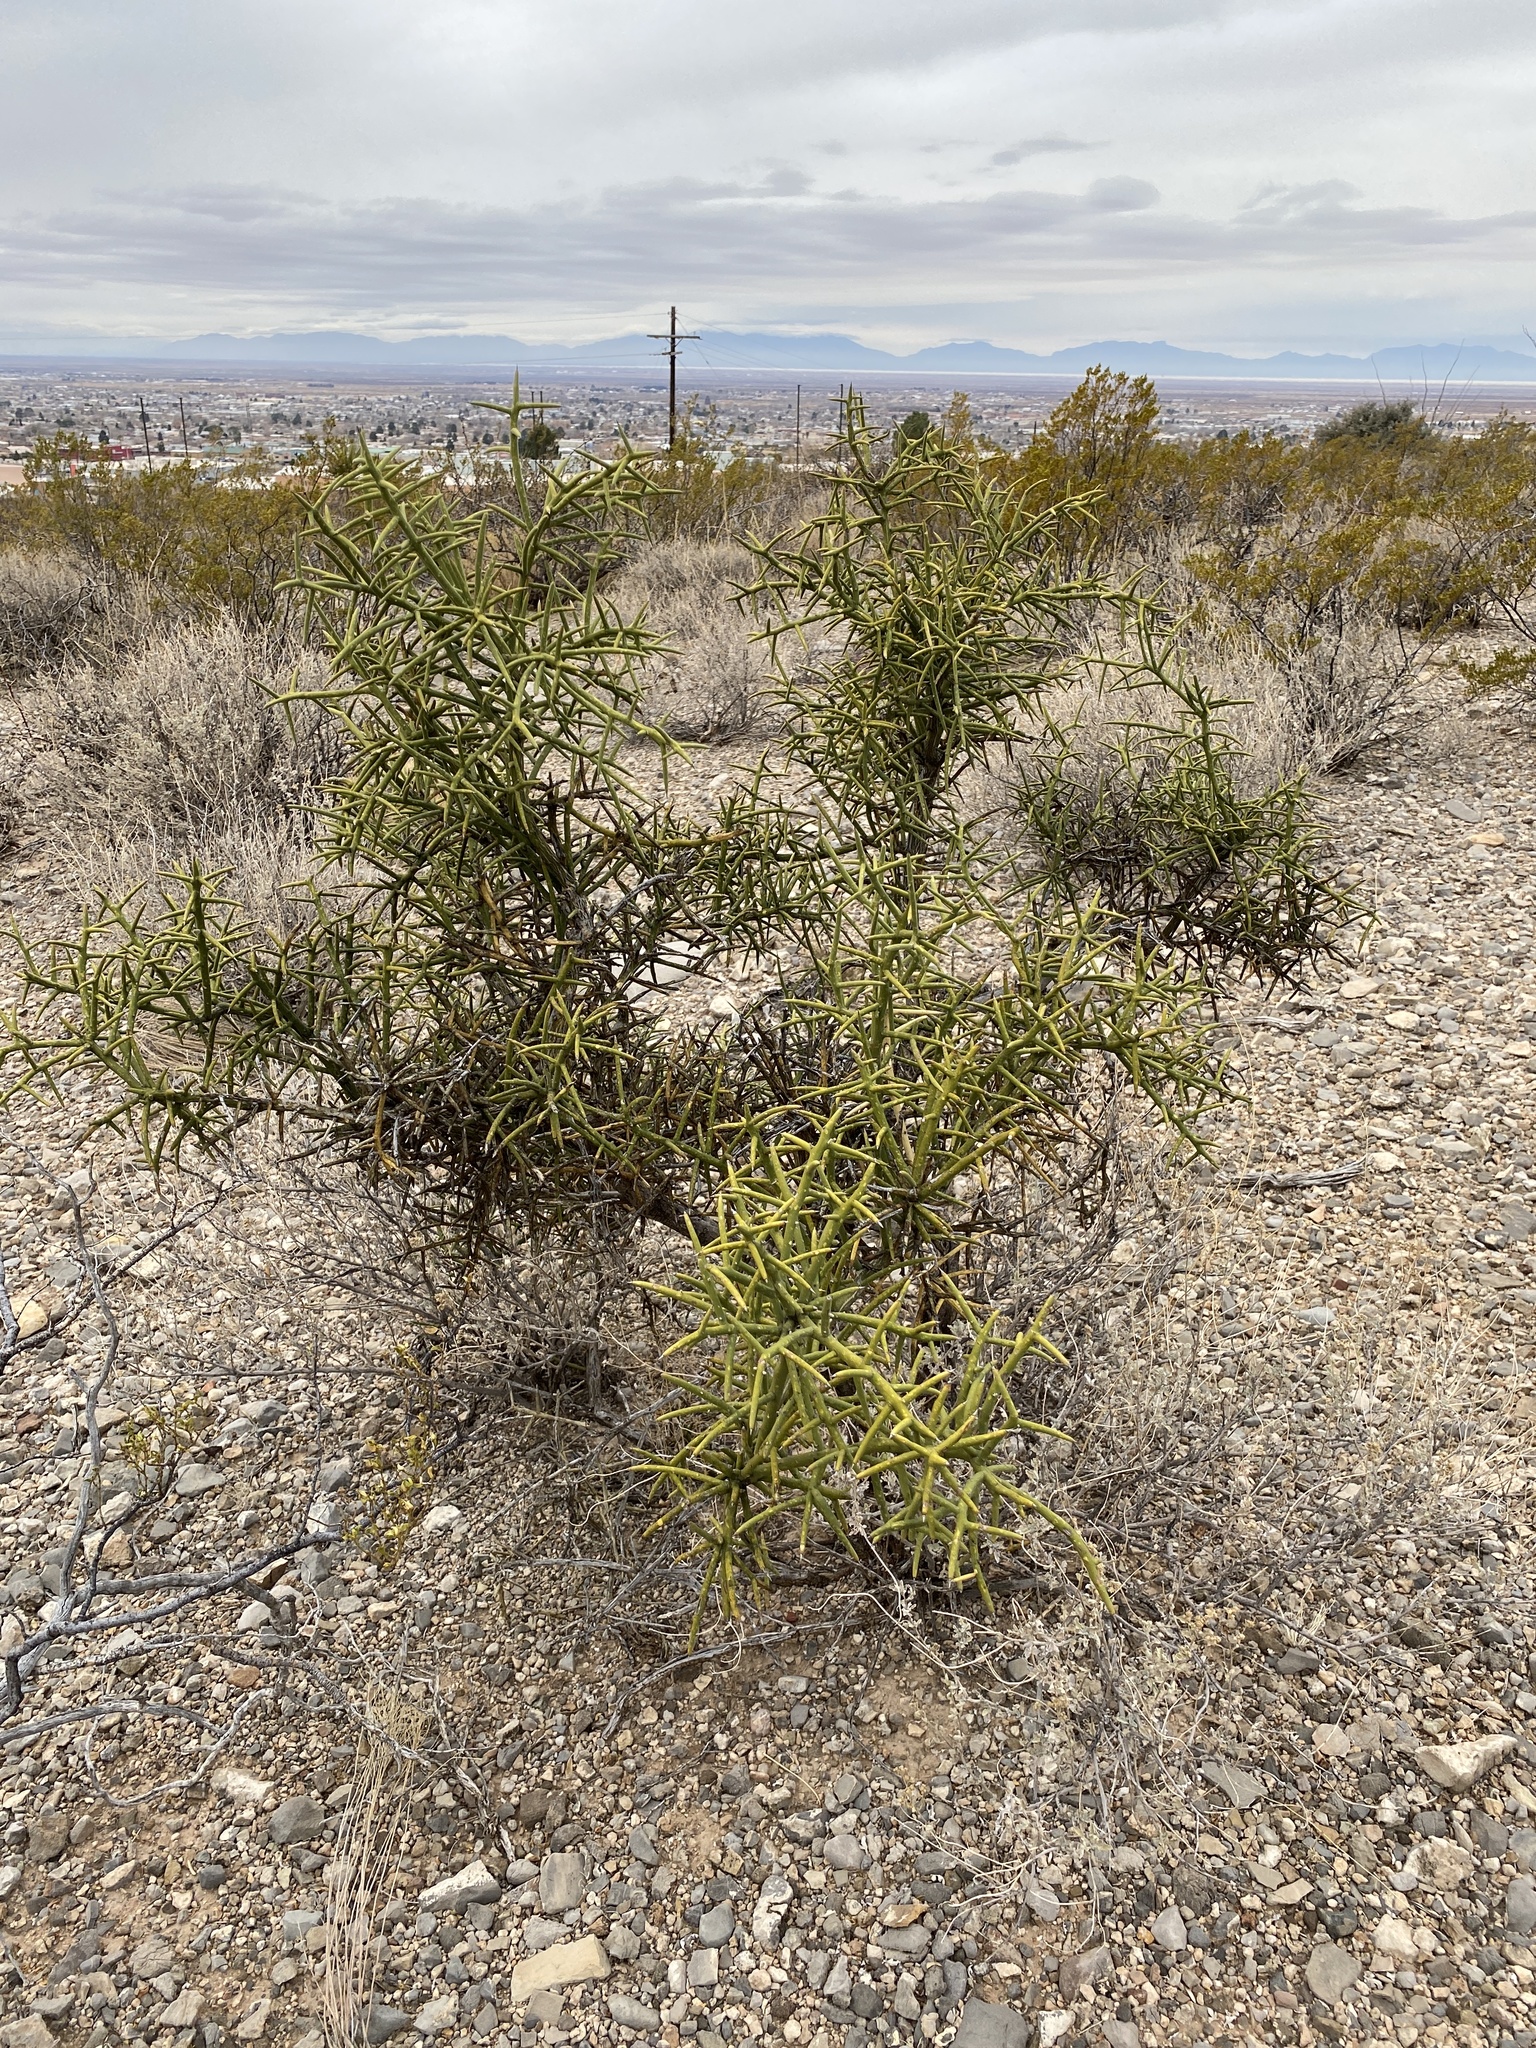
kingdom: Plantae
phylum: Tracheophyta
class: Magnoliopsida
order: Brassicales
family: Koeberliniaceae
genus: Koeberlinia
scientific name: Koeberlinia spinosa
